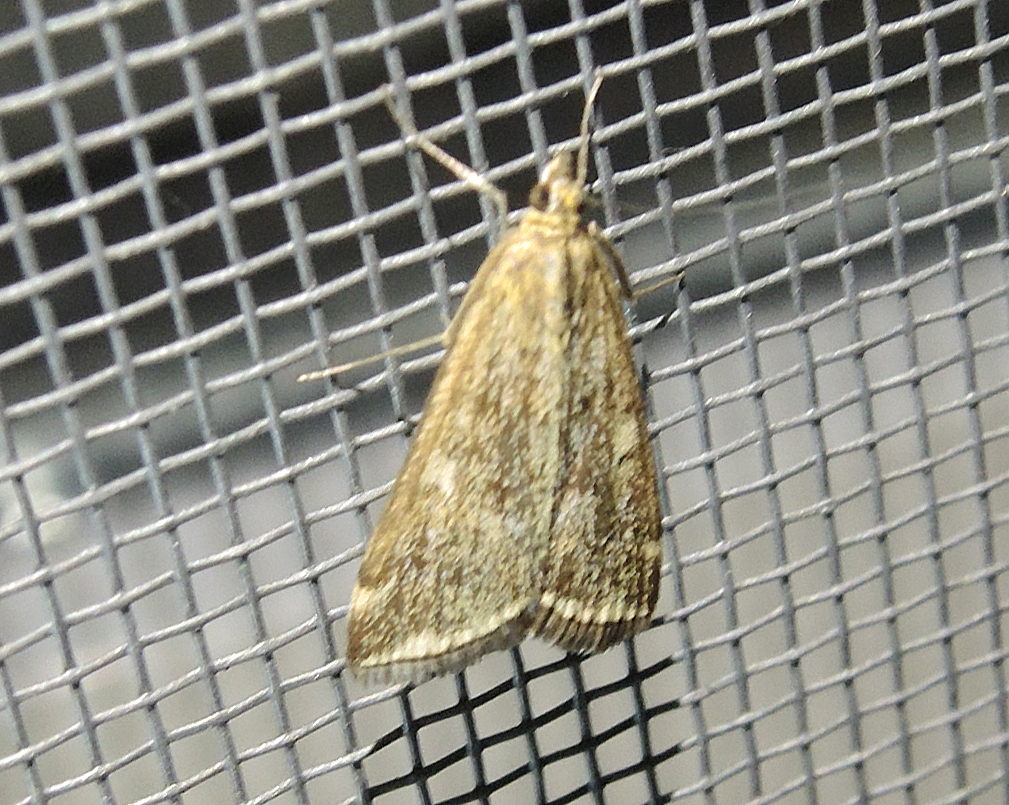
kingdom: Animalia
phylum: Arthropoda
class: Insecta
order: Lepidoptera
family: Crambidae
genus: Loxostege
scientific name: Loxostege sticticalis
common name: Crambid moth
